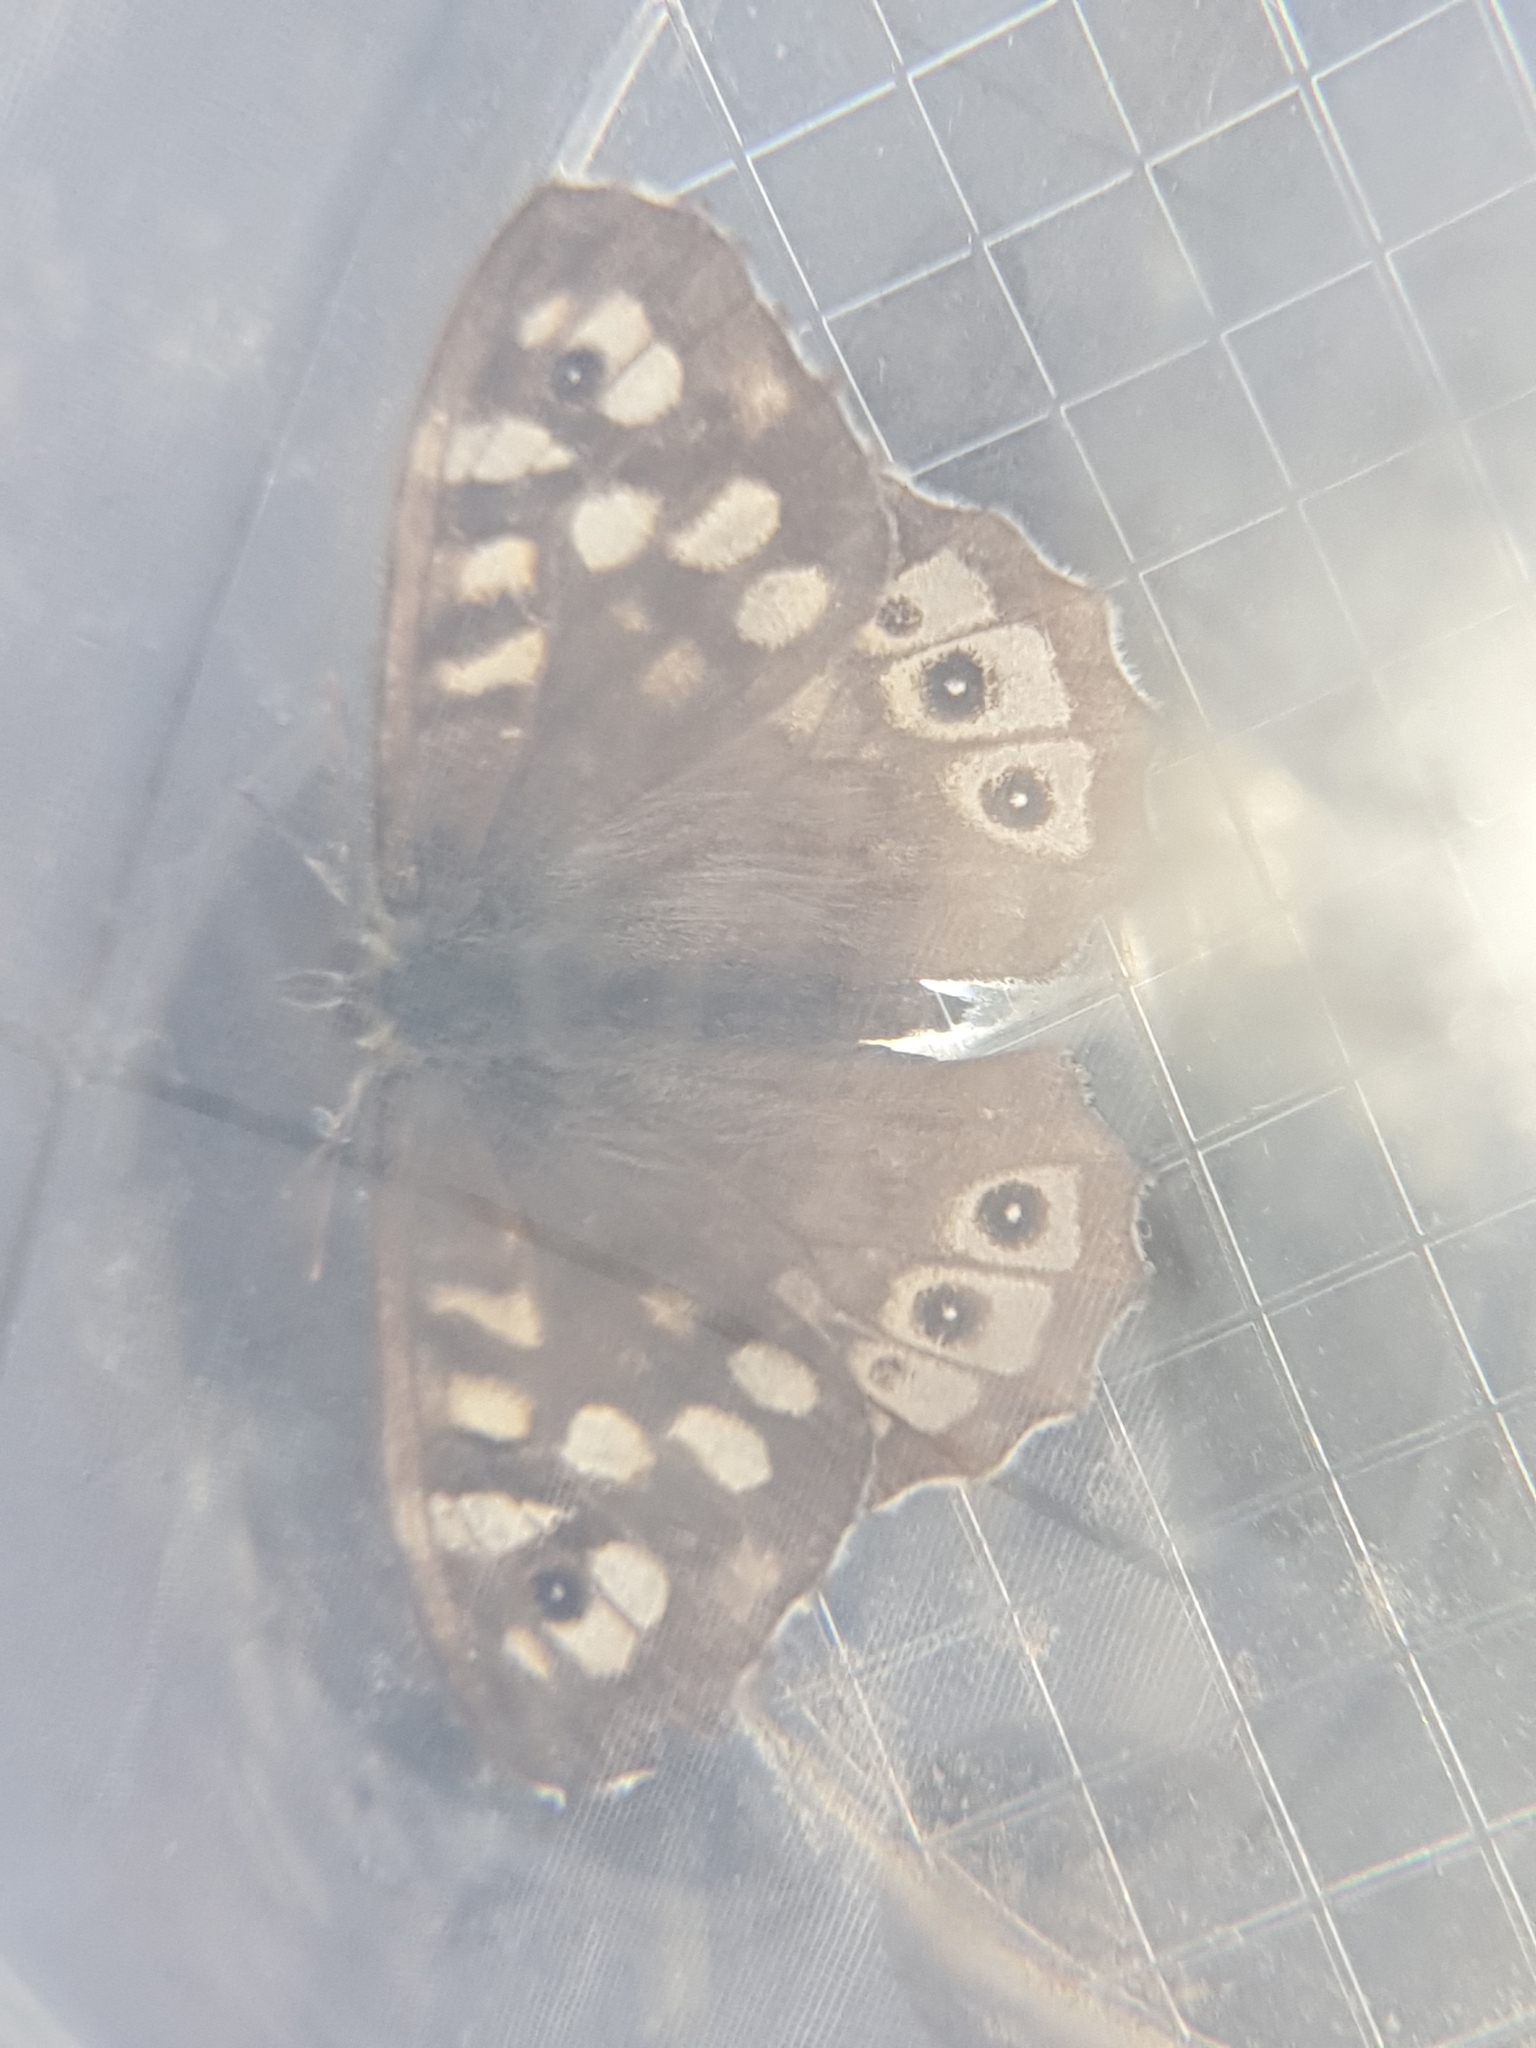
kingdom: Animalia
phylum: Arthropoda
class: Insecta
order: Lepidoptera
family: Nymphalidae
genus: Pararge
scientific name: Pararge aegeria
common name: Speckled wood
